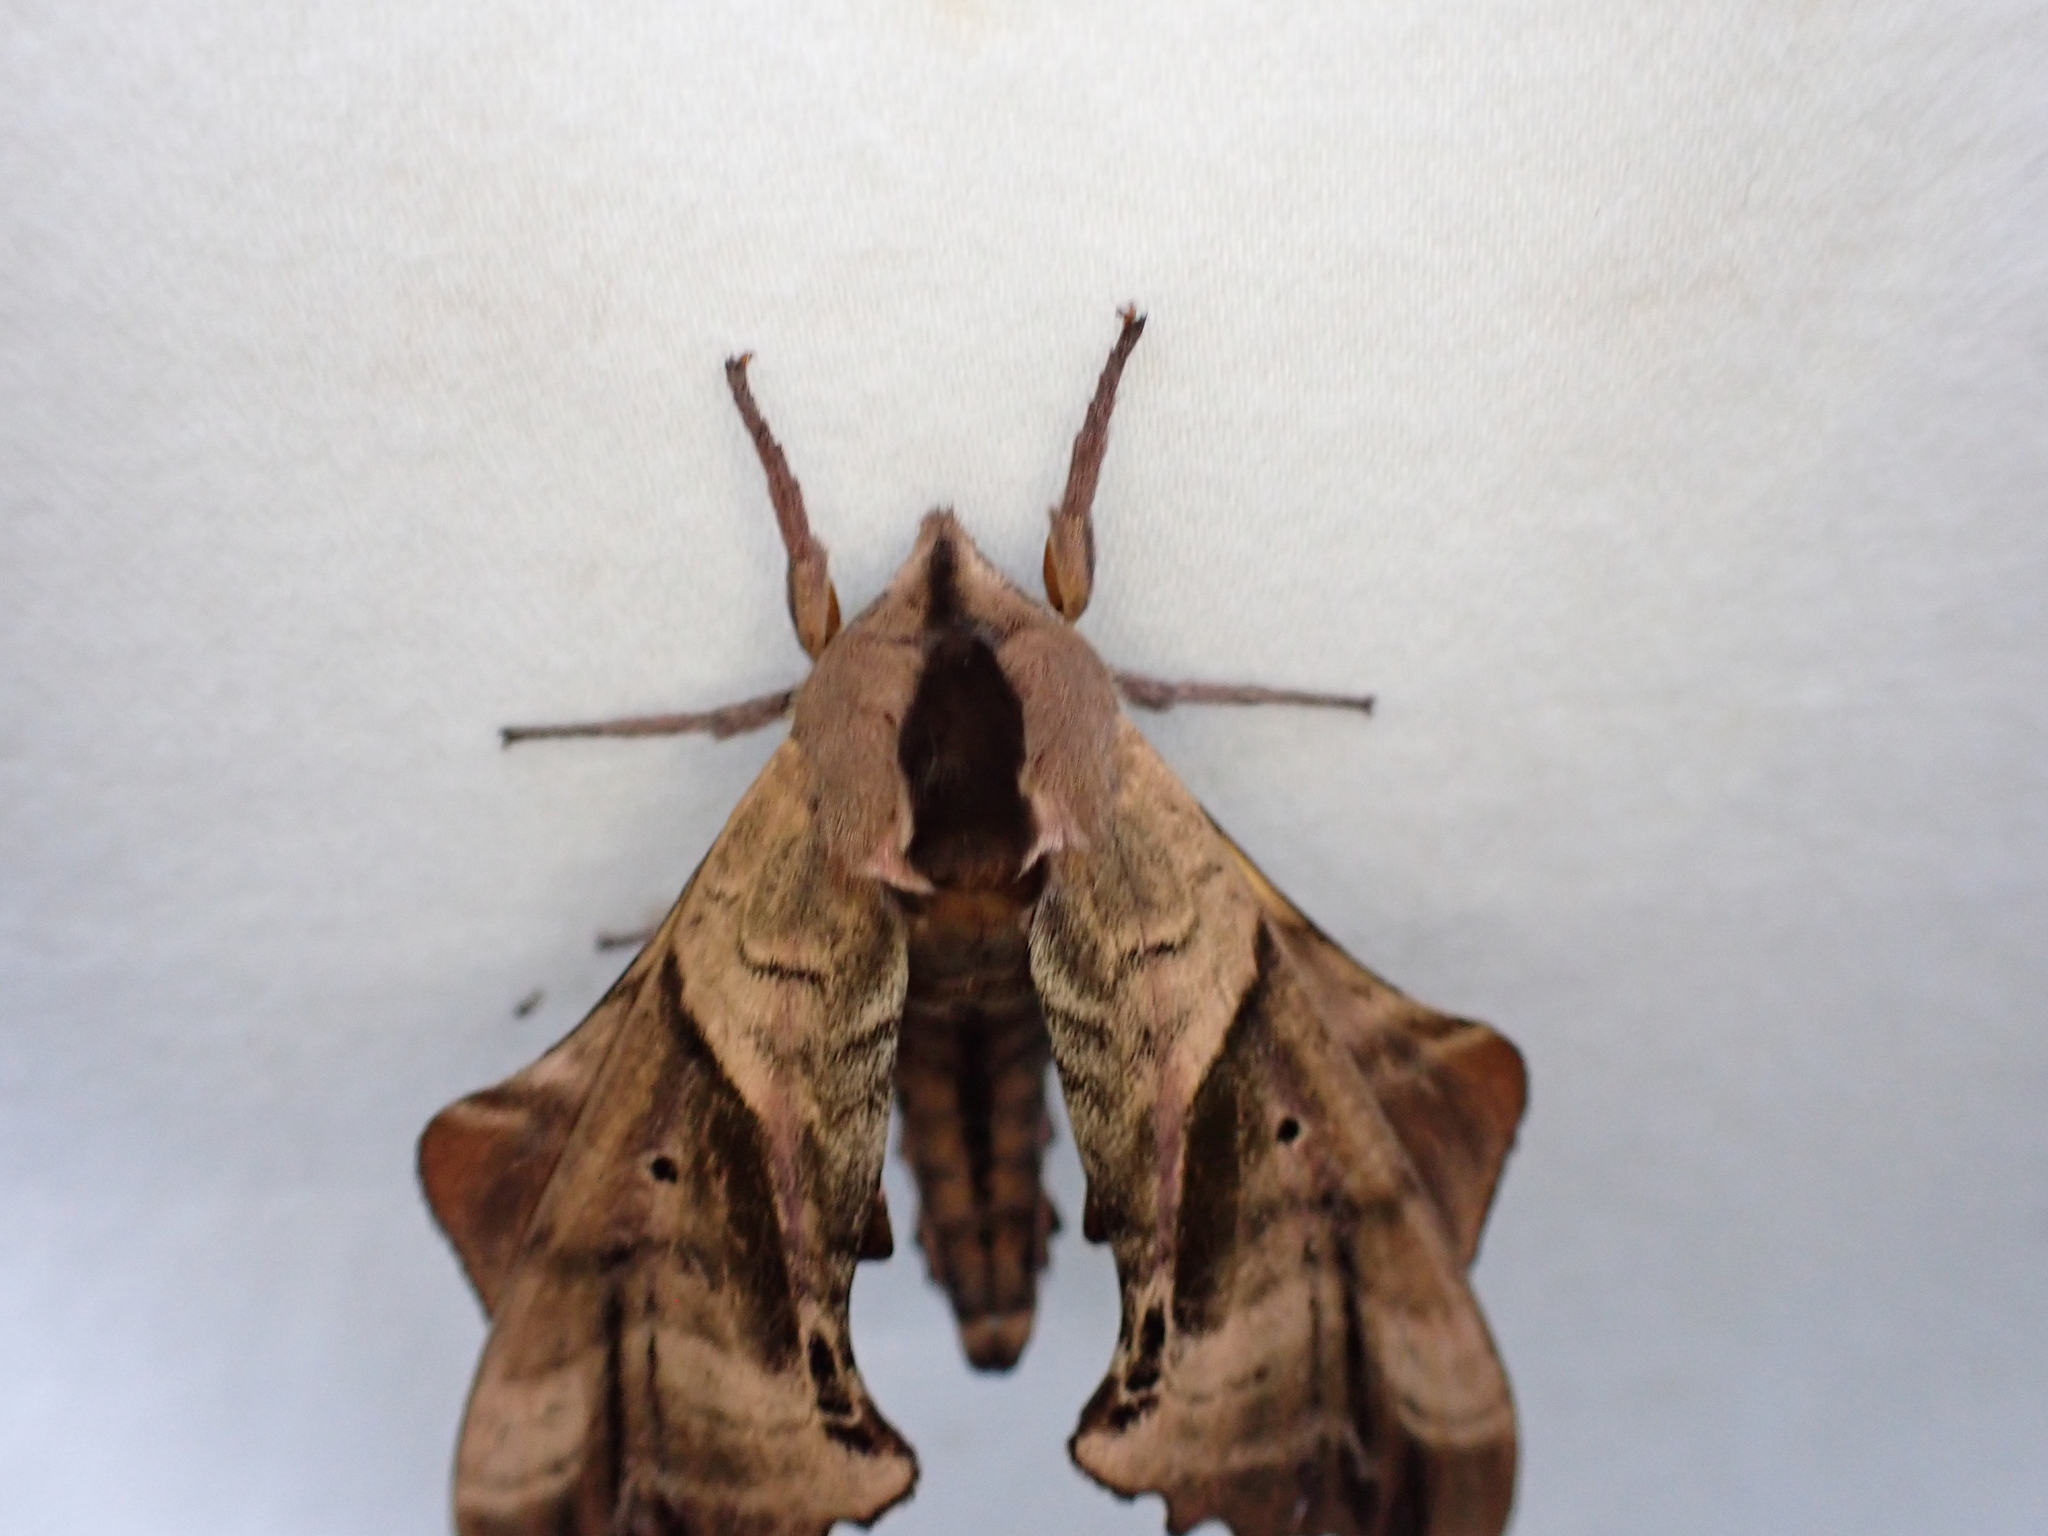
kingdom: Animalia
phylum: Arthropoda
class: Insecta
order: Lepidoptera
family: Sphingidae
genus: Paonias
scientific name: Paonias excaecata
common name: Blind-eyed sphinx
